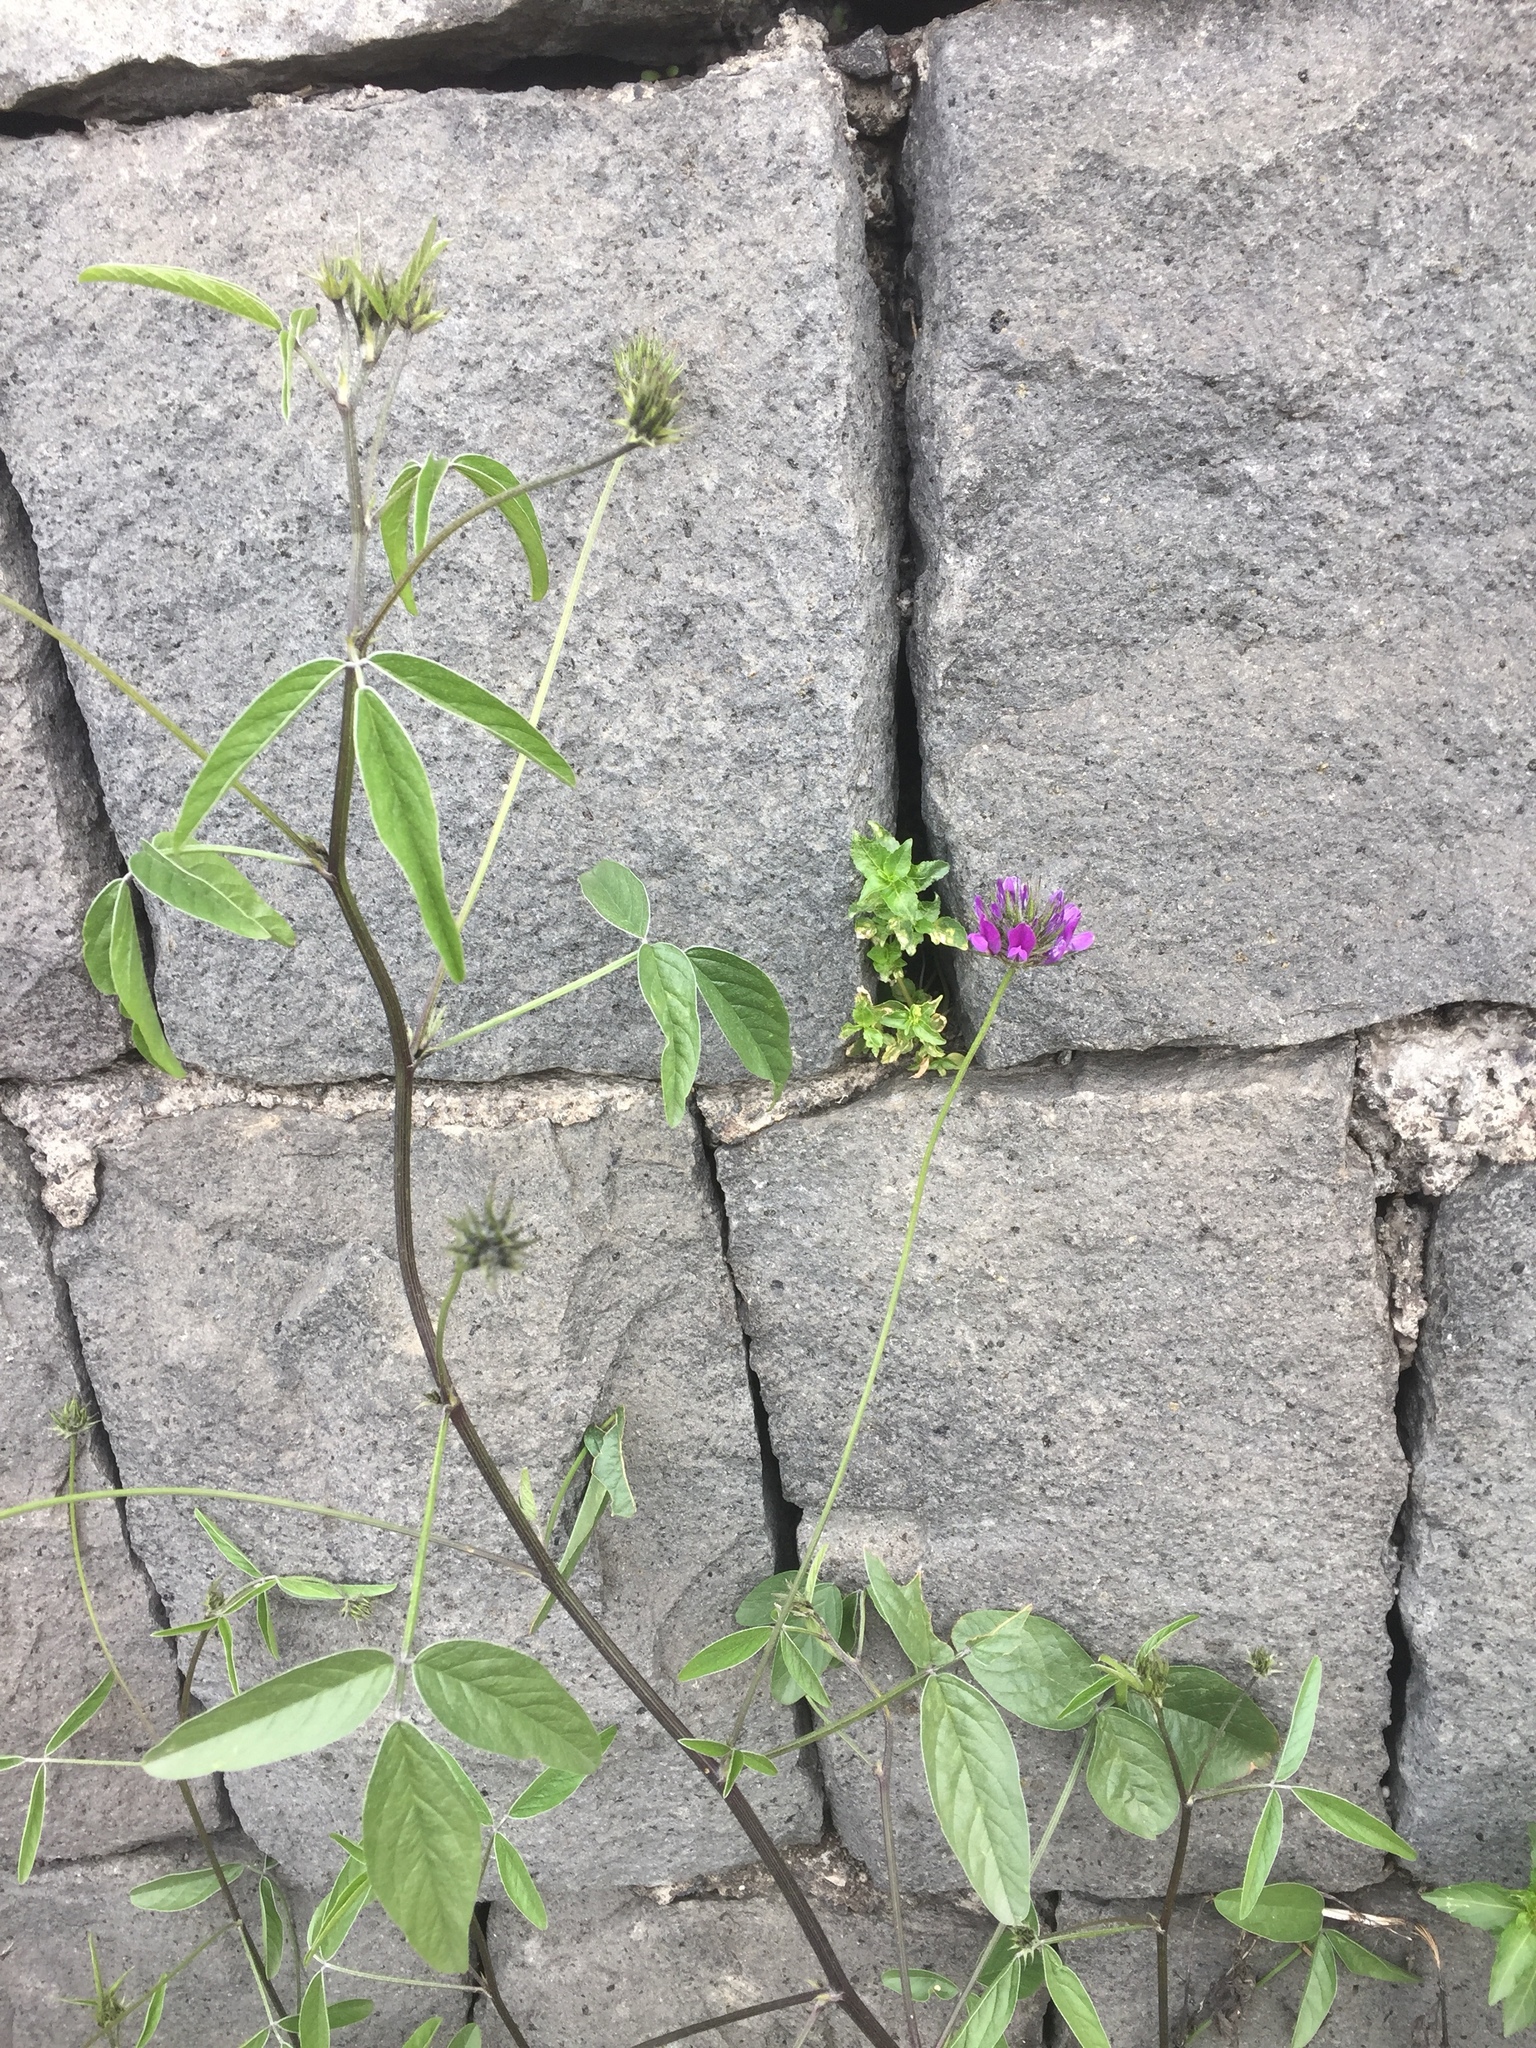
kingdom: Plantae
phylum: Tracheophyta
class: Magnoliopsida
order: Fabales
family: Fabaceae
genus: Bituminaria
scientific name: Bituminaria bituminosa
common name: Arabian pea
